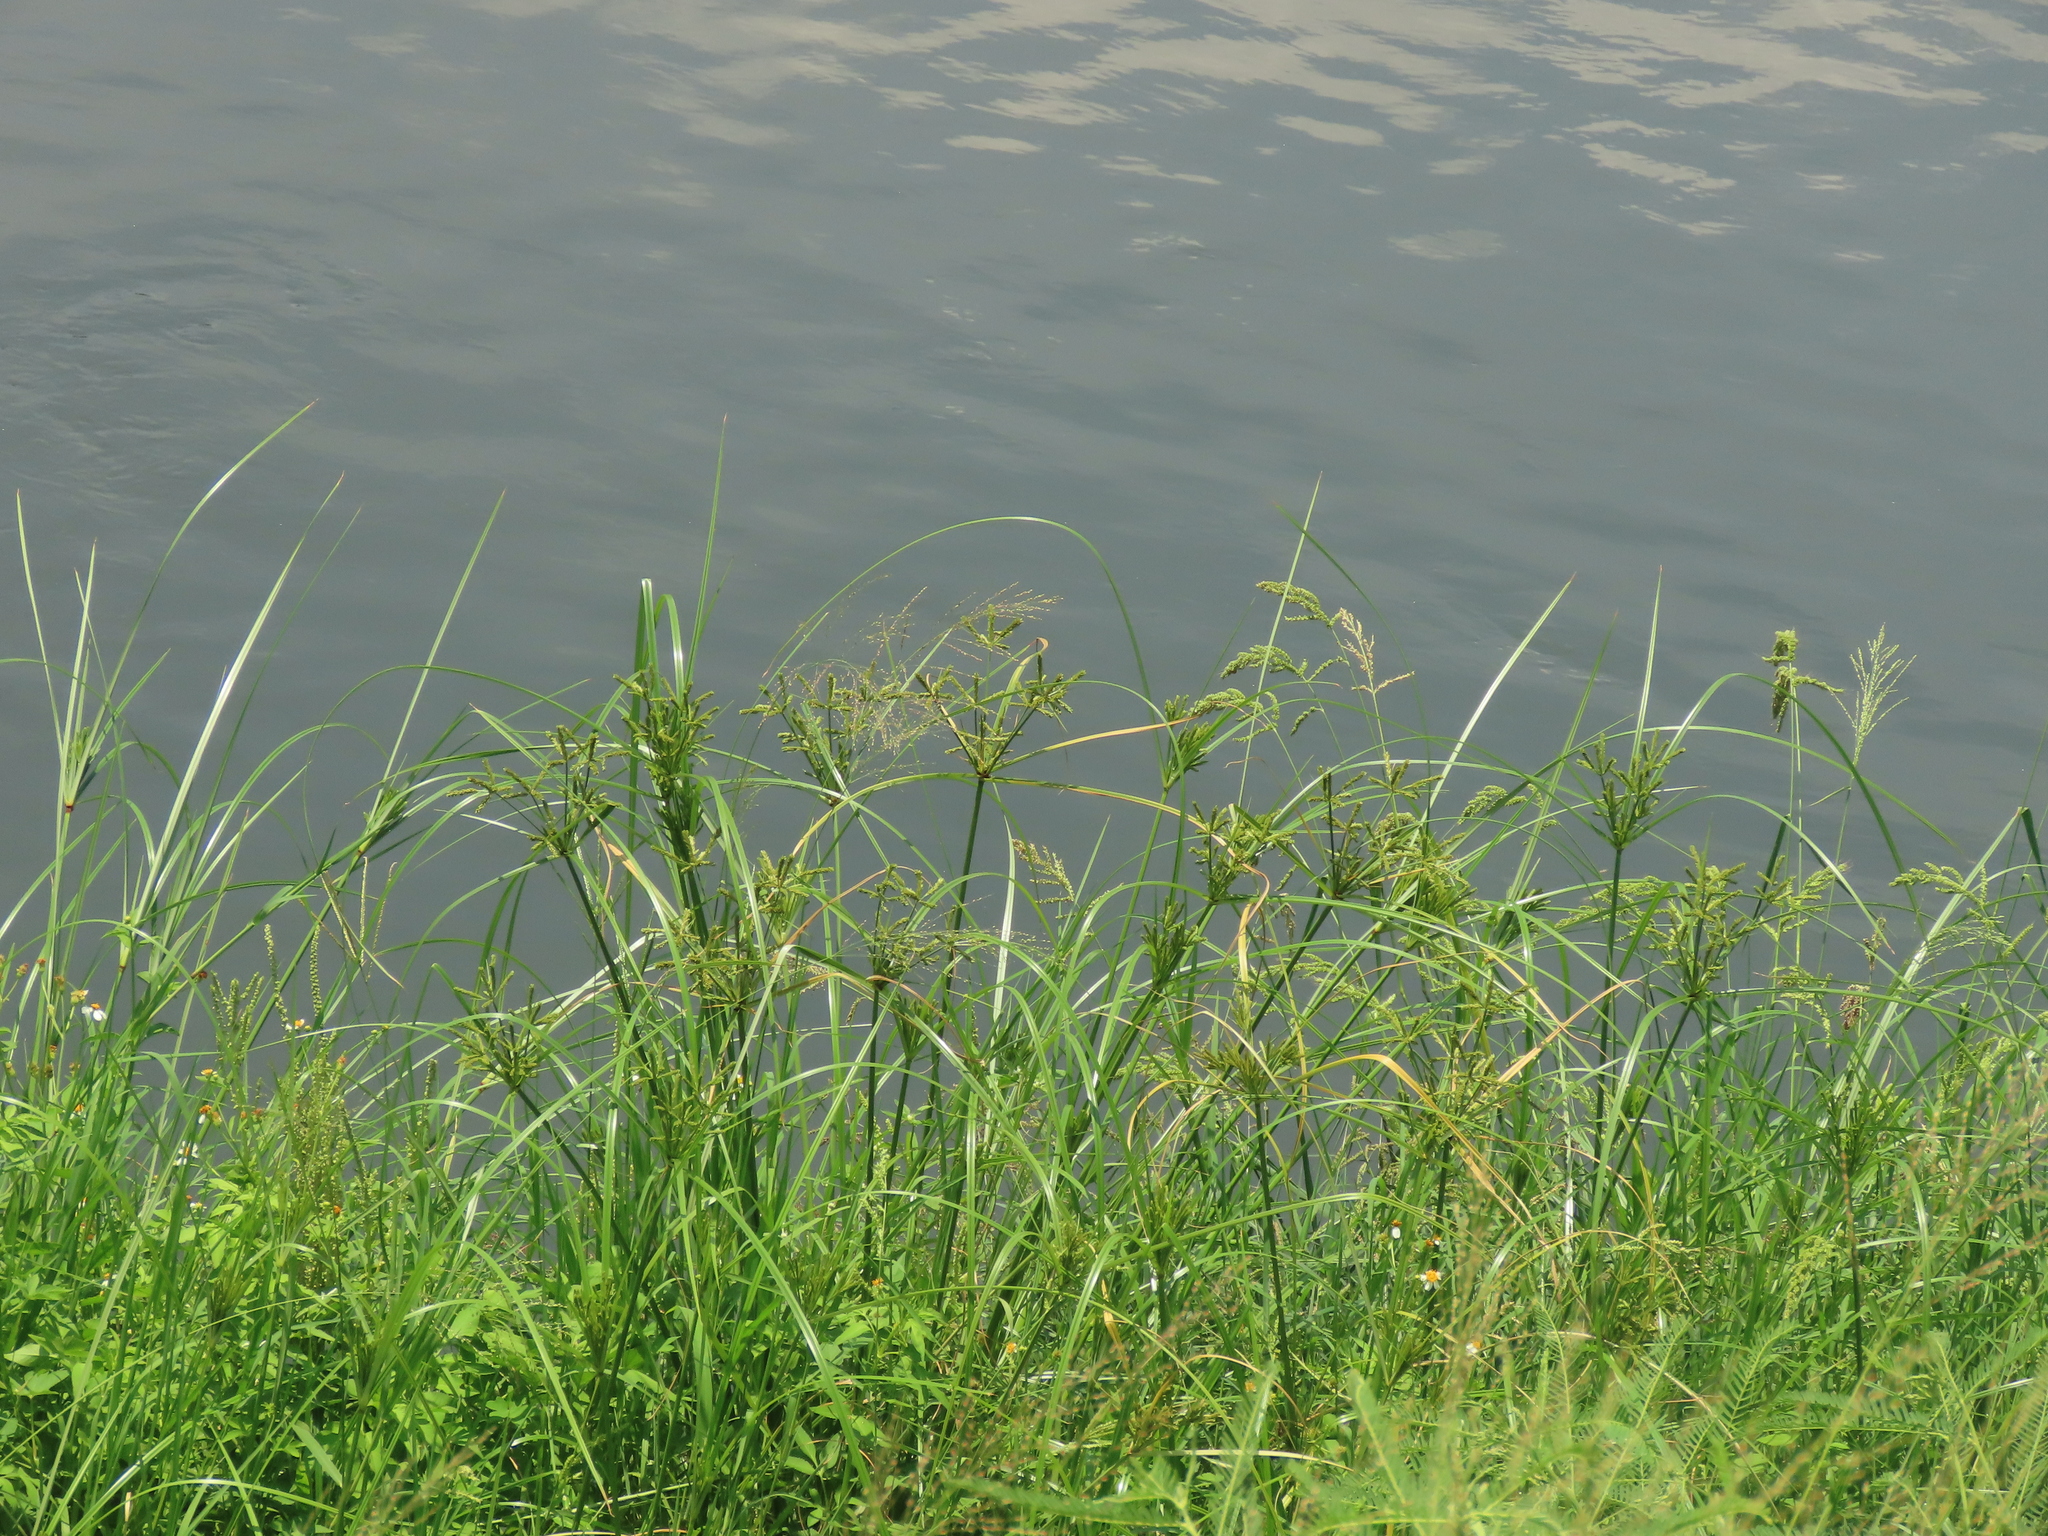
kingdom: Plantae
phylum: Tracheophyta
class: Liliopsida
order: Poales
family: Cyperaceae
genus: Cyperus
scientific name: Cyperus imbricatus
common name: Shingle flatsedge
